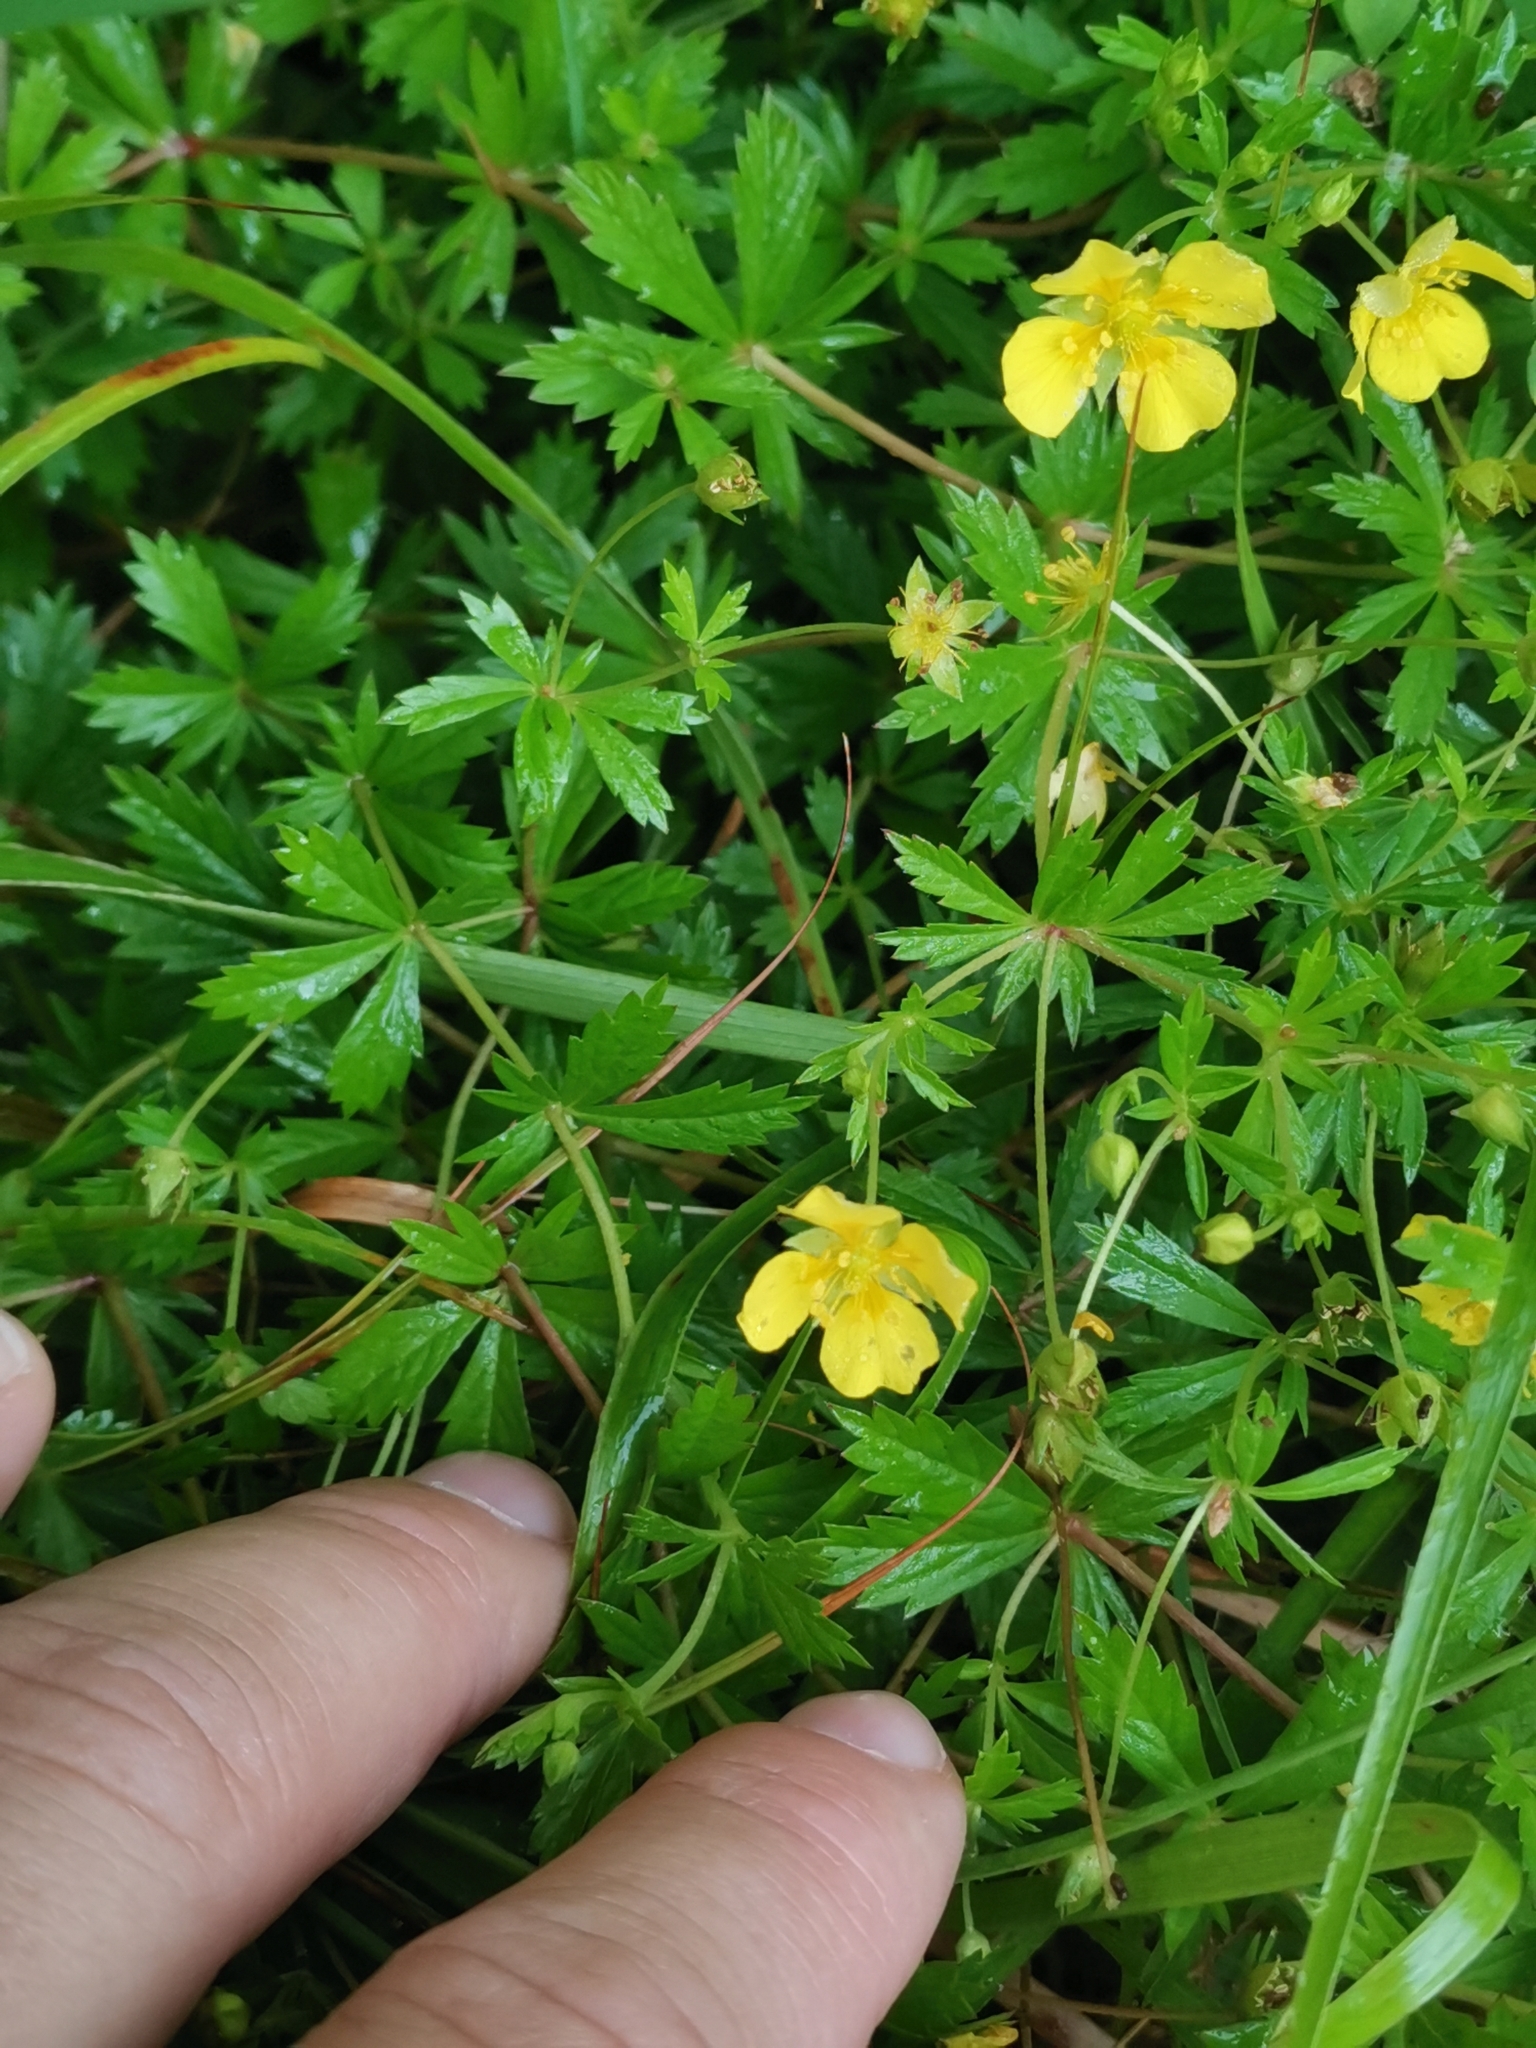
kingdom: Plantae
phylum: Tracheophyta
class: Magnoliopsida
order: Rosales
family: Rosaceae
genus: Potentilla
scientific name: Potentilla erecta
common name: Tormentil
